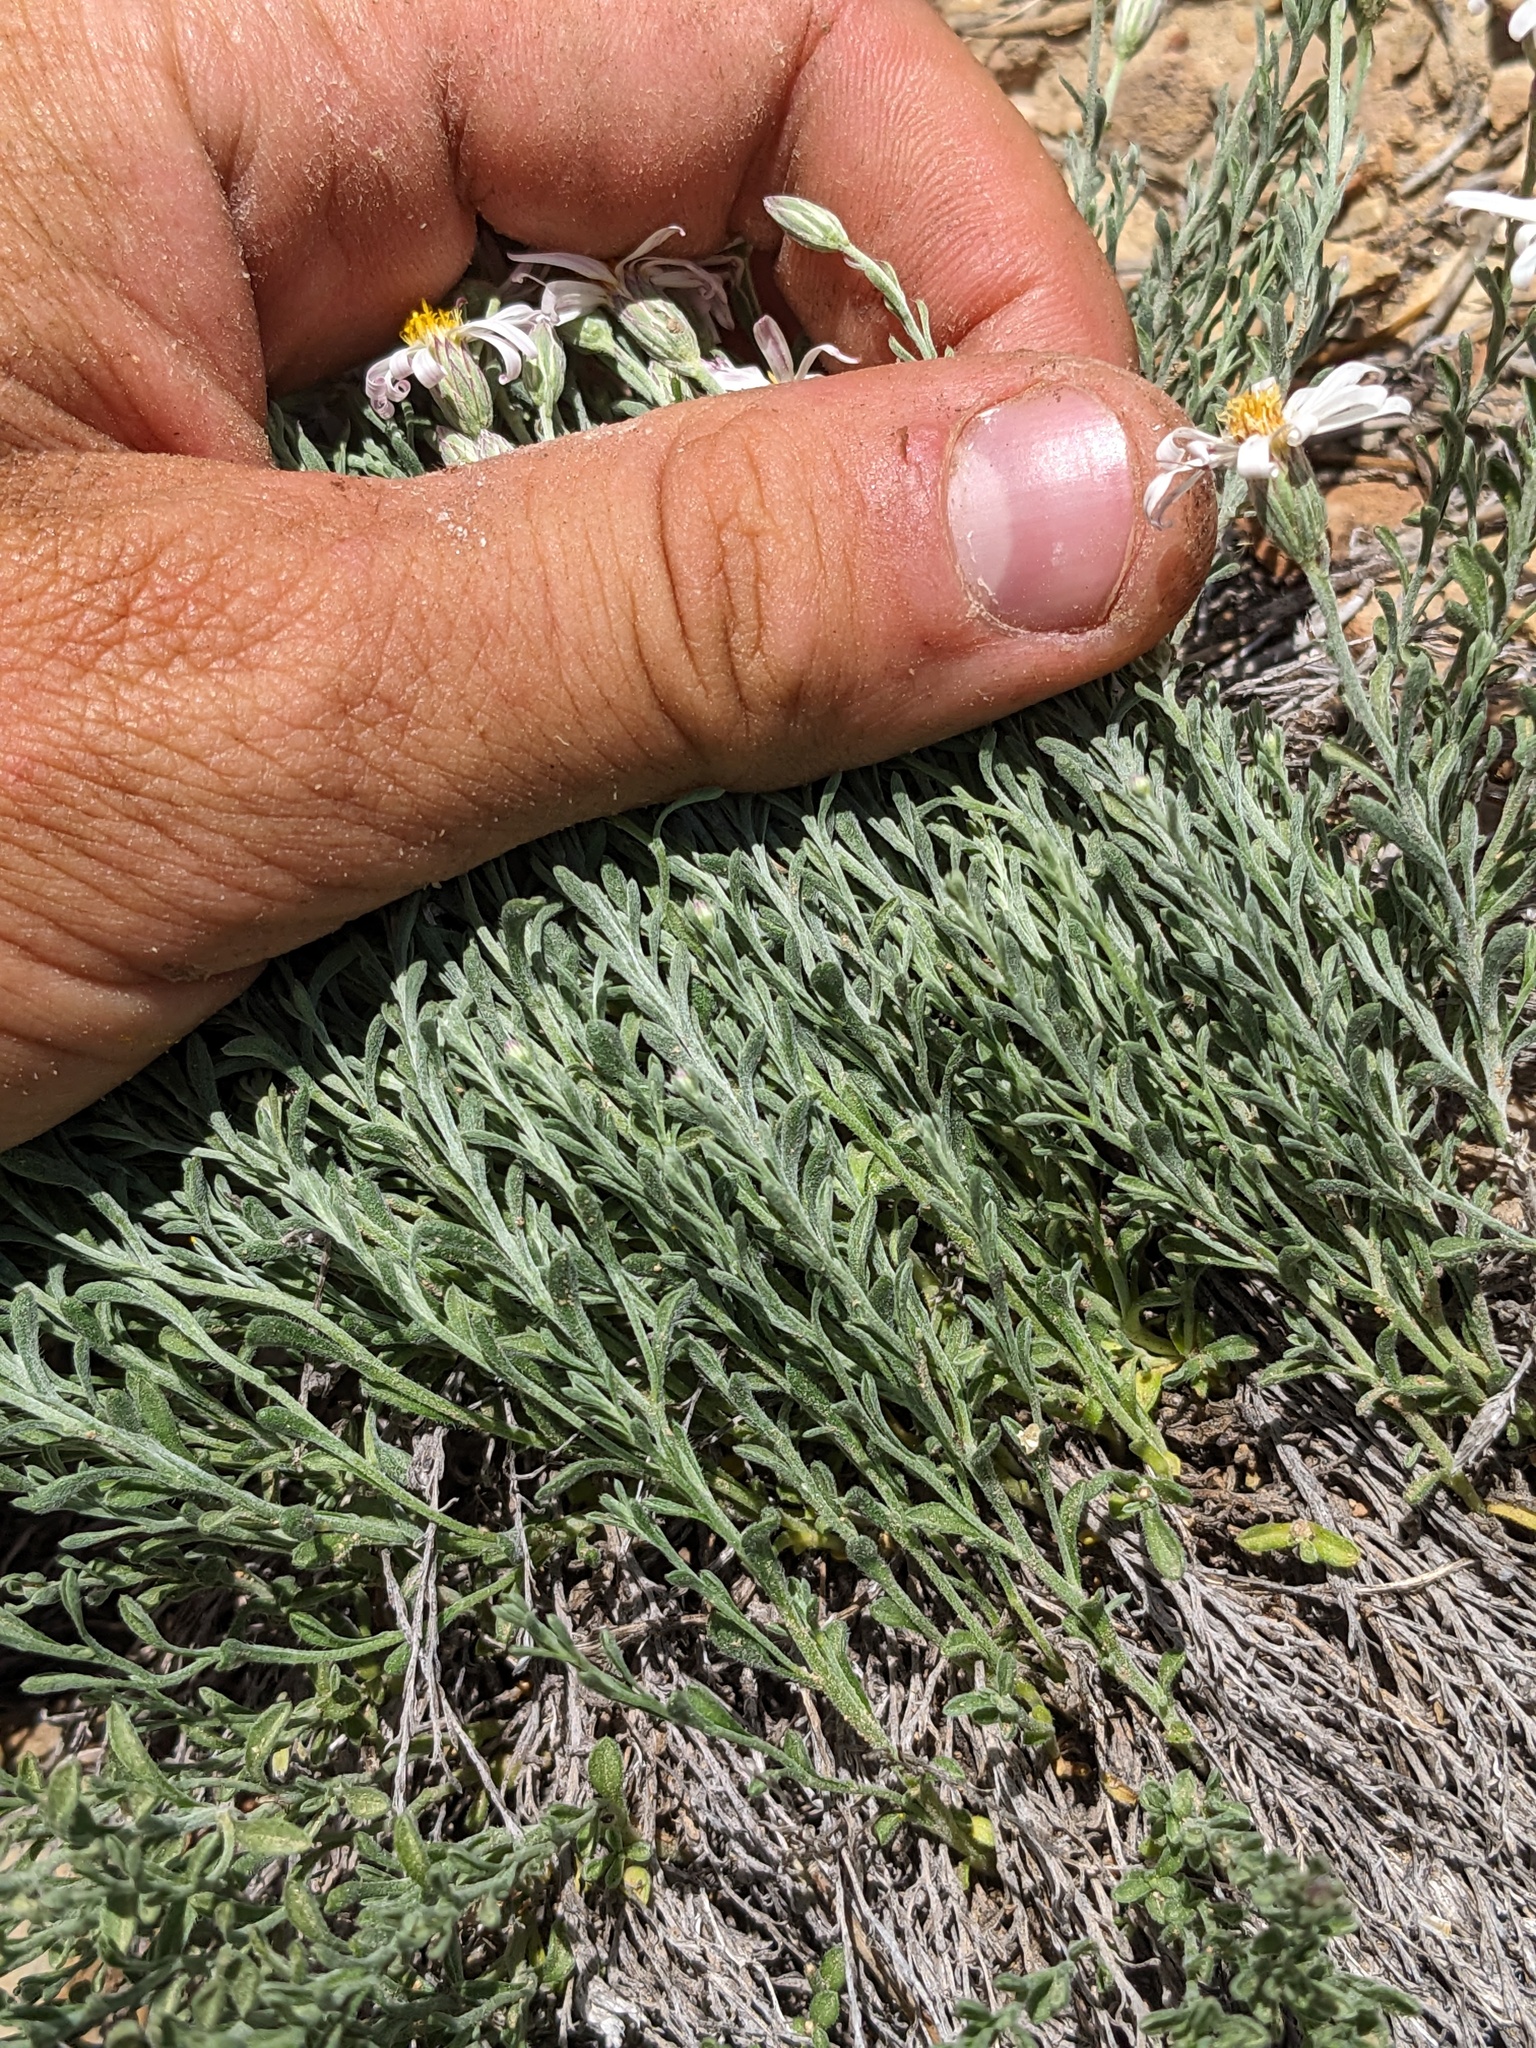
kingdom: Plantae
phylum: Tracheophyta
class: Magnoliopsida
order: Asterales
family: Asteraceae
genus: Chaetopappa
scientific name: Chaetopappa ericoides
